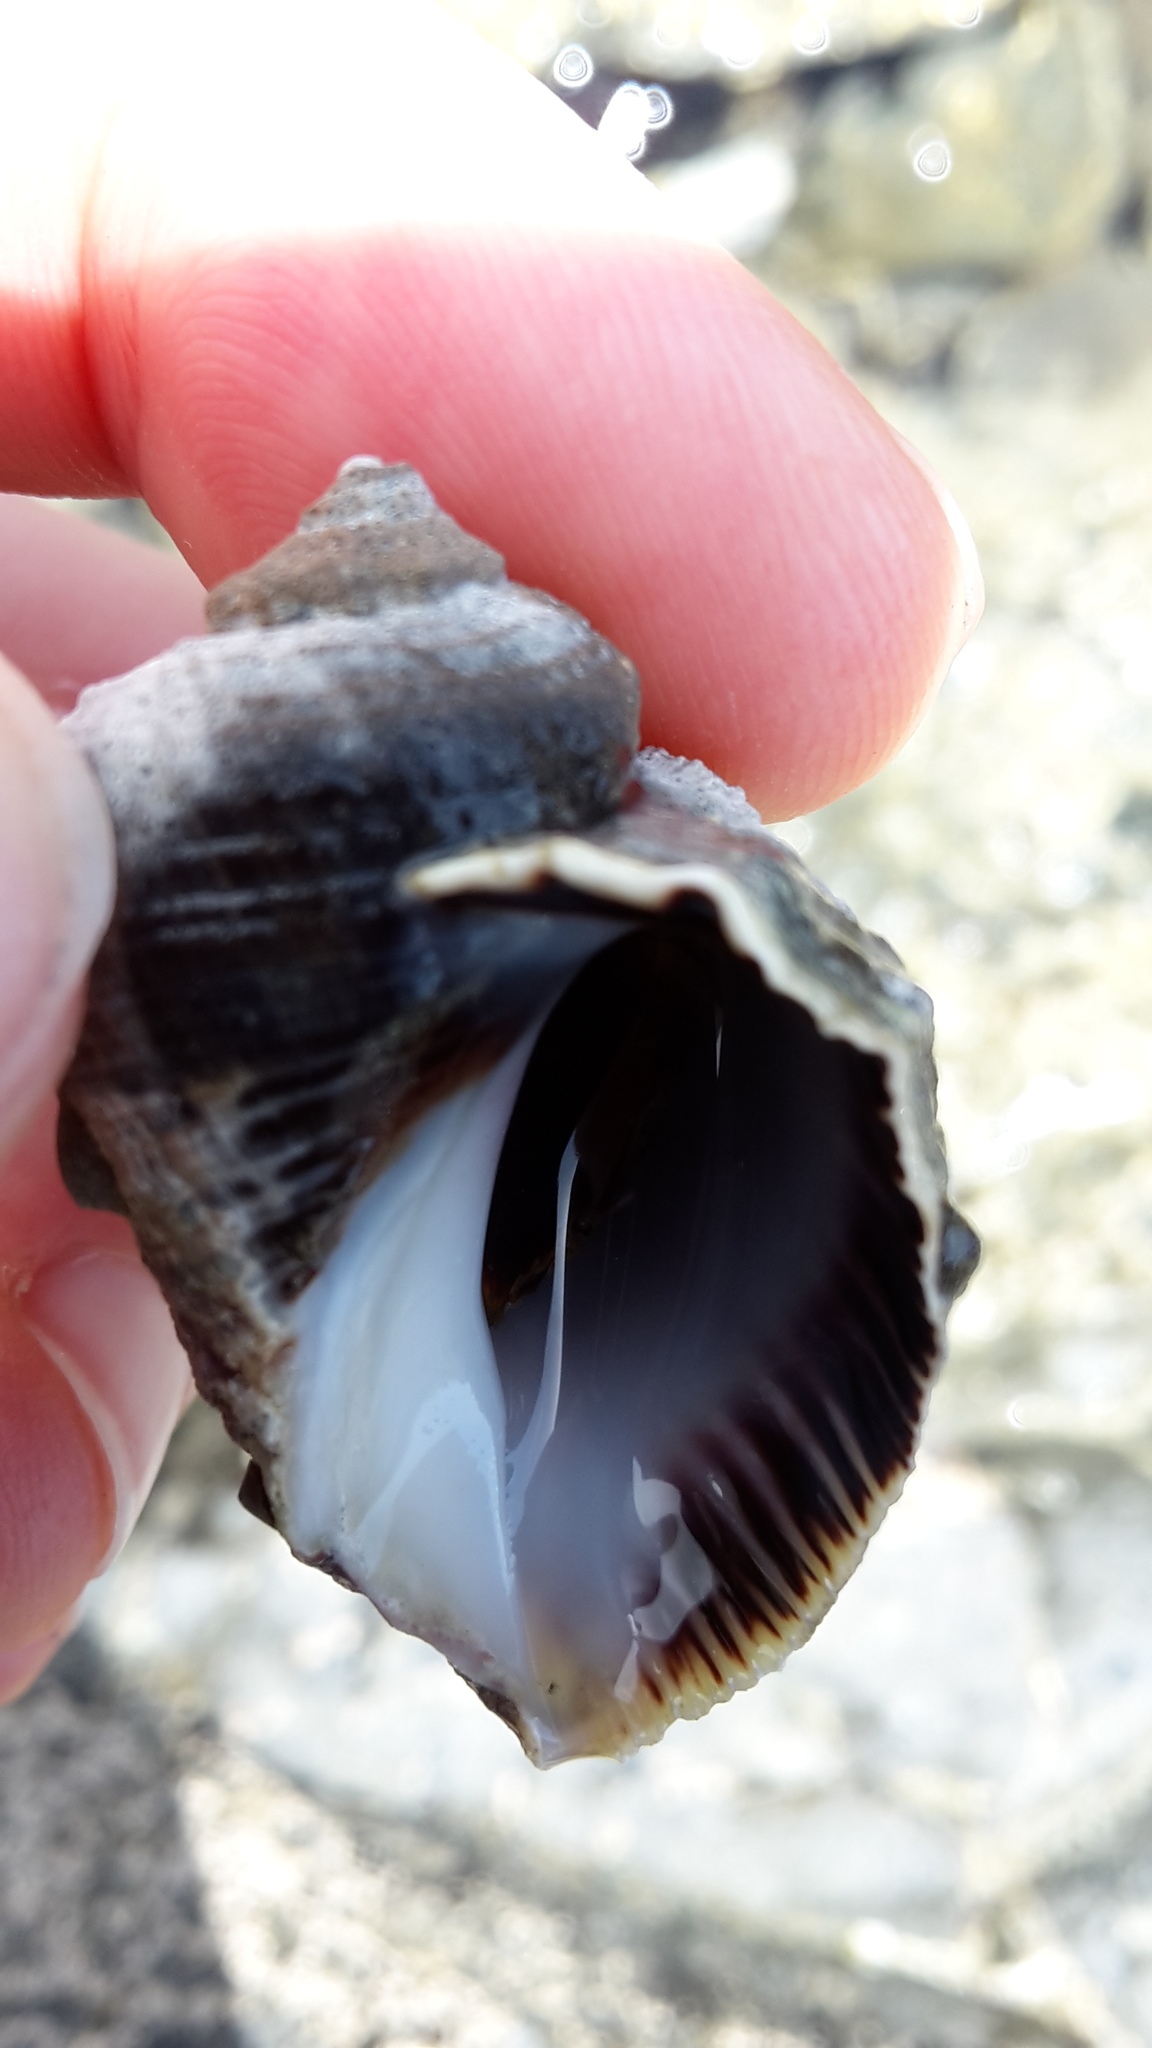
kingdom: Animalia
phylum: Mollusca
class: Gastropoda
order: Neogastropoda
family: Muricidae
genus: Haustrum
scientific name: Haustrum haustorium
